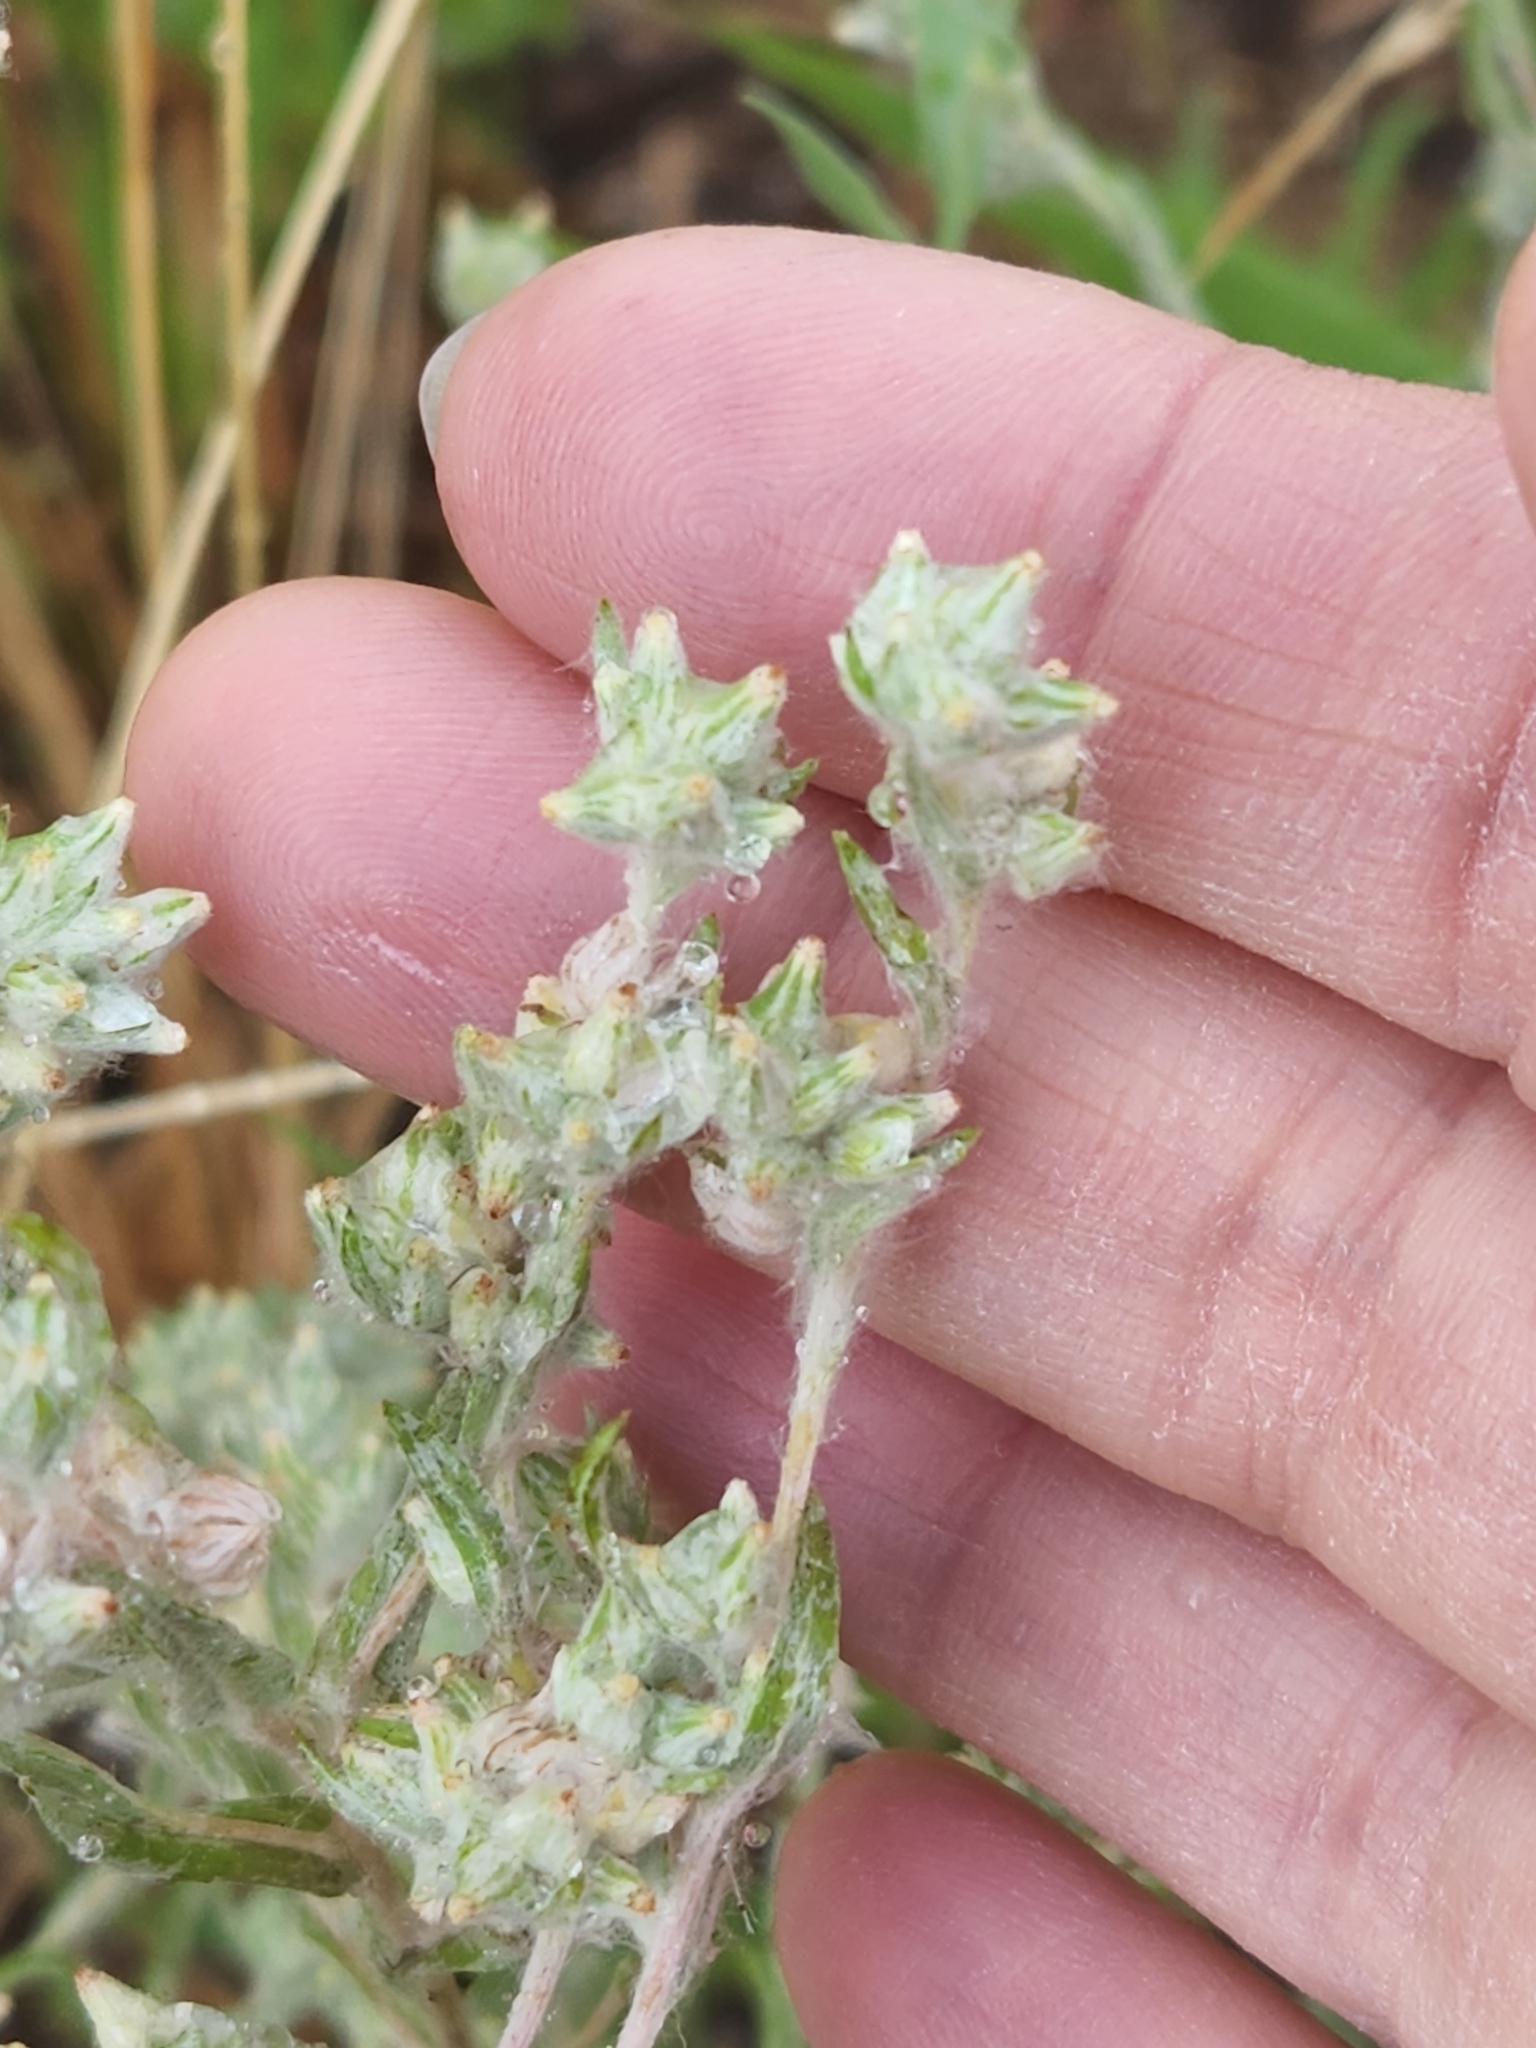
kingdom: Plantae
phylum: Tracheophyta
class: Magnoliopsida
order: Asterales
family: Asteraceae
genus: Filago
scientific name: Filago arvensis
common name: Field cudweed
